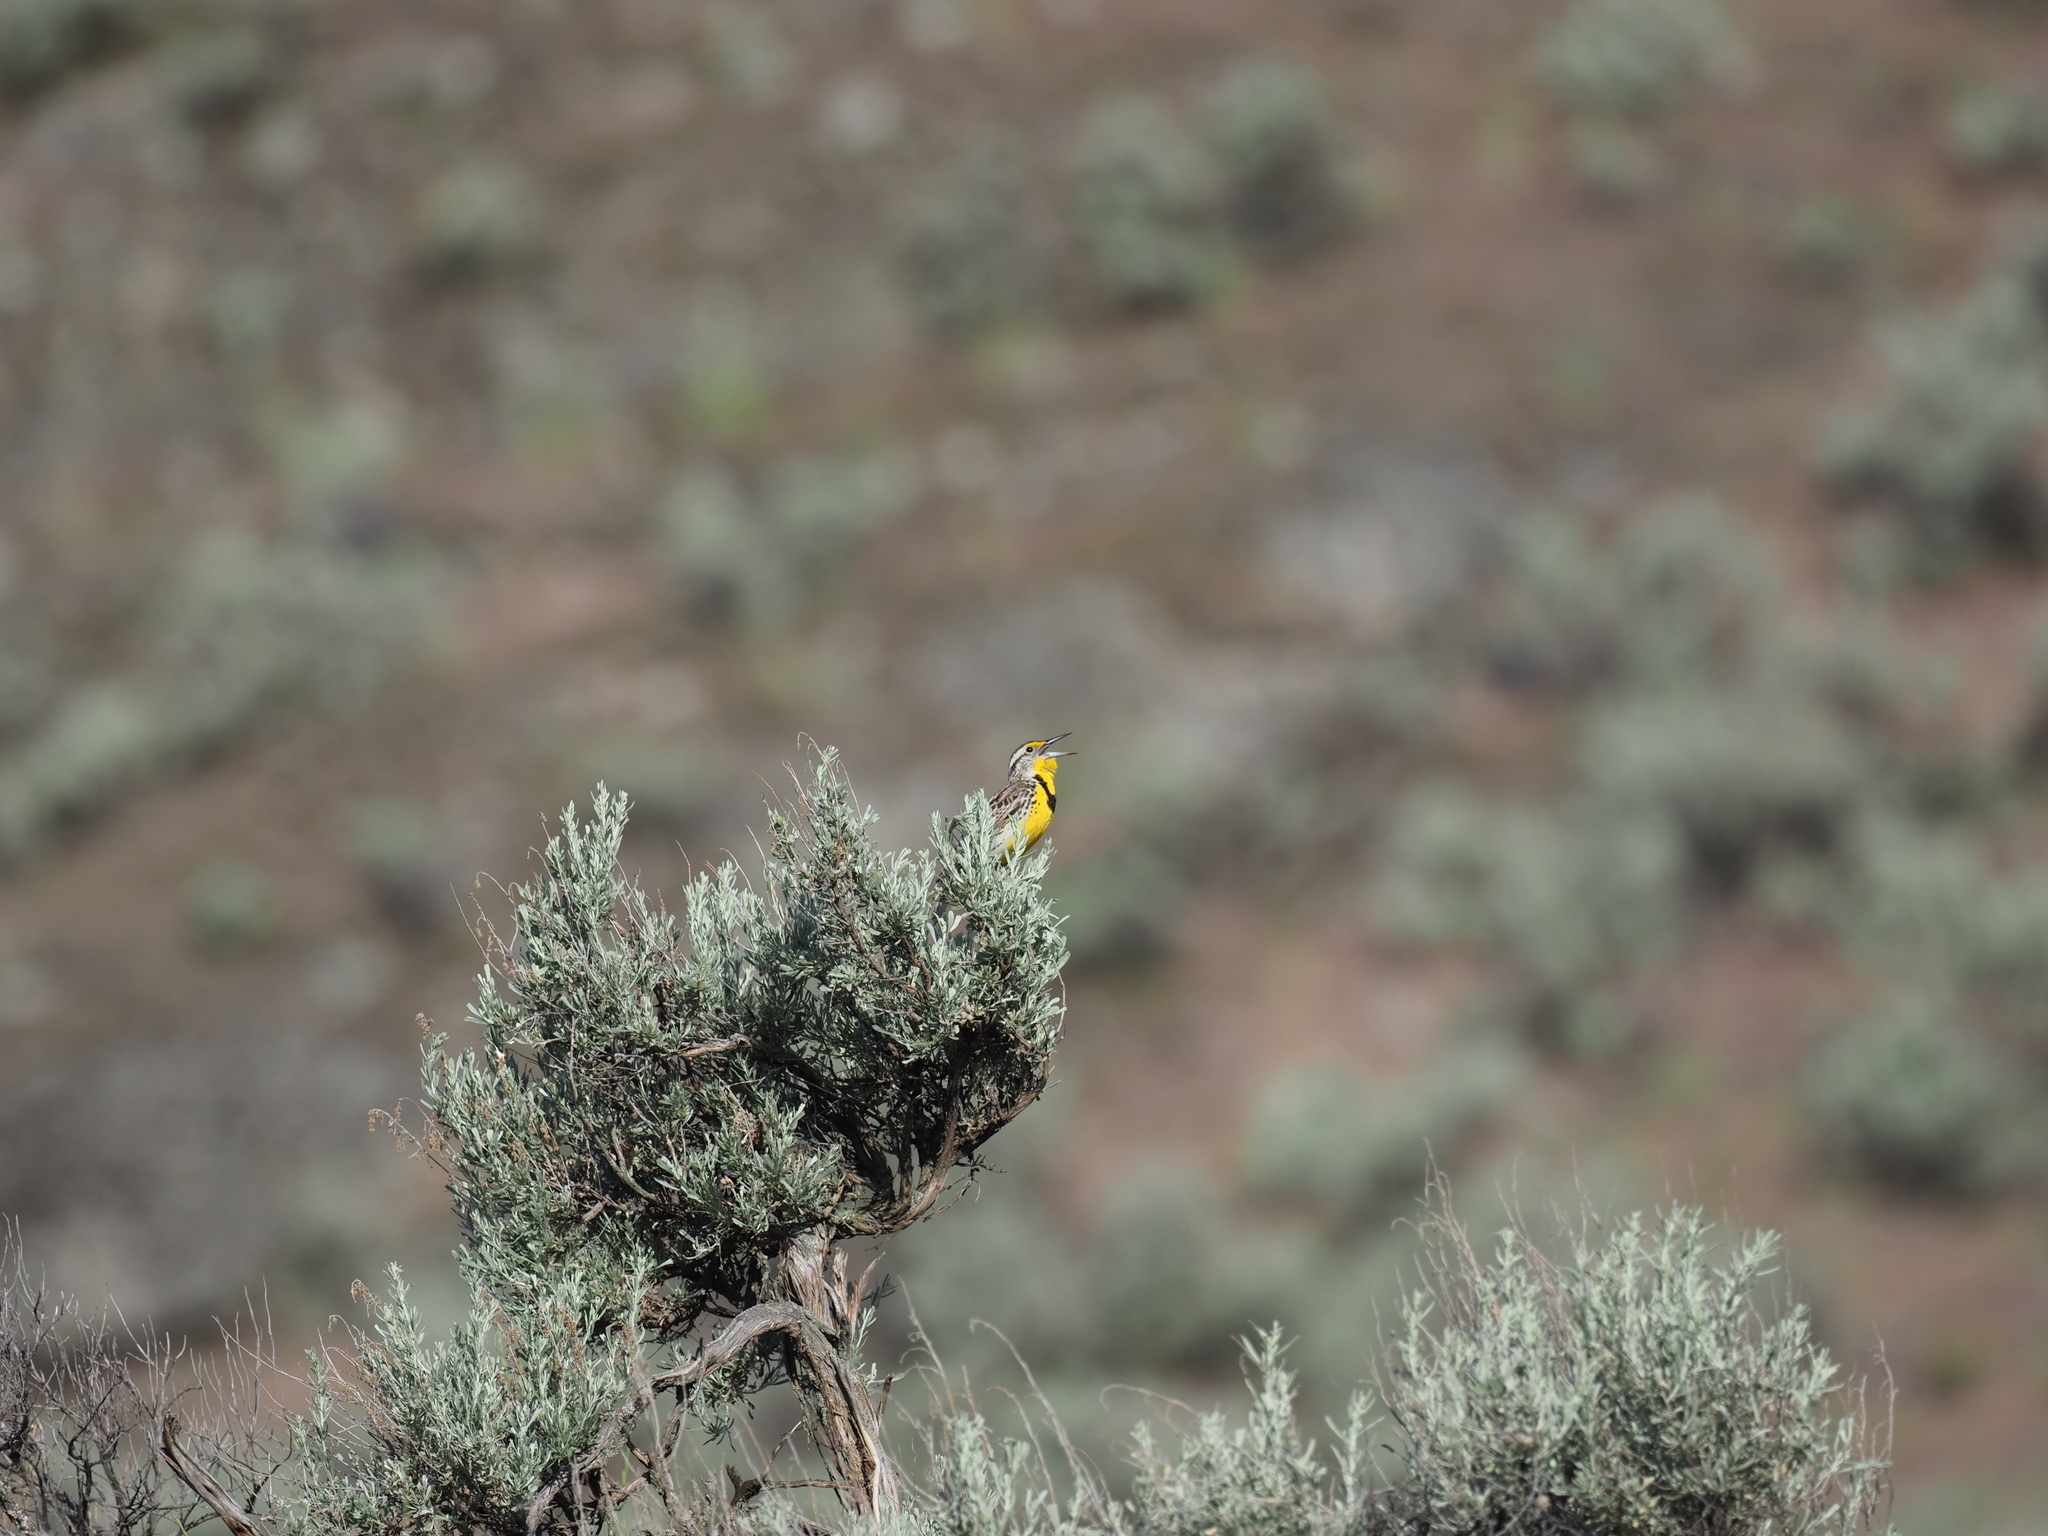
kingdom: Animalia
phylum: Chordata
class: Aves
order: Passeriformes
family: Icteridae
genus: Sturnella
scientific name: Sturnella neglecta
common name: Western meadowlark
